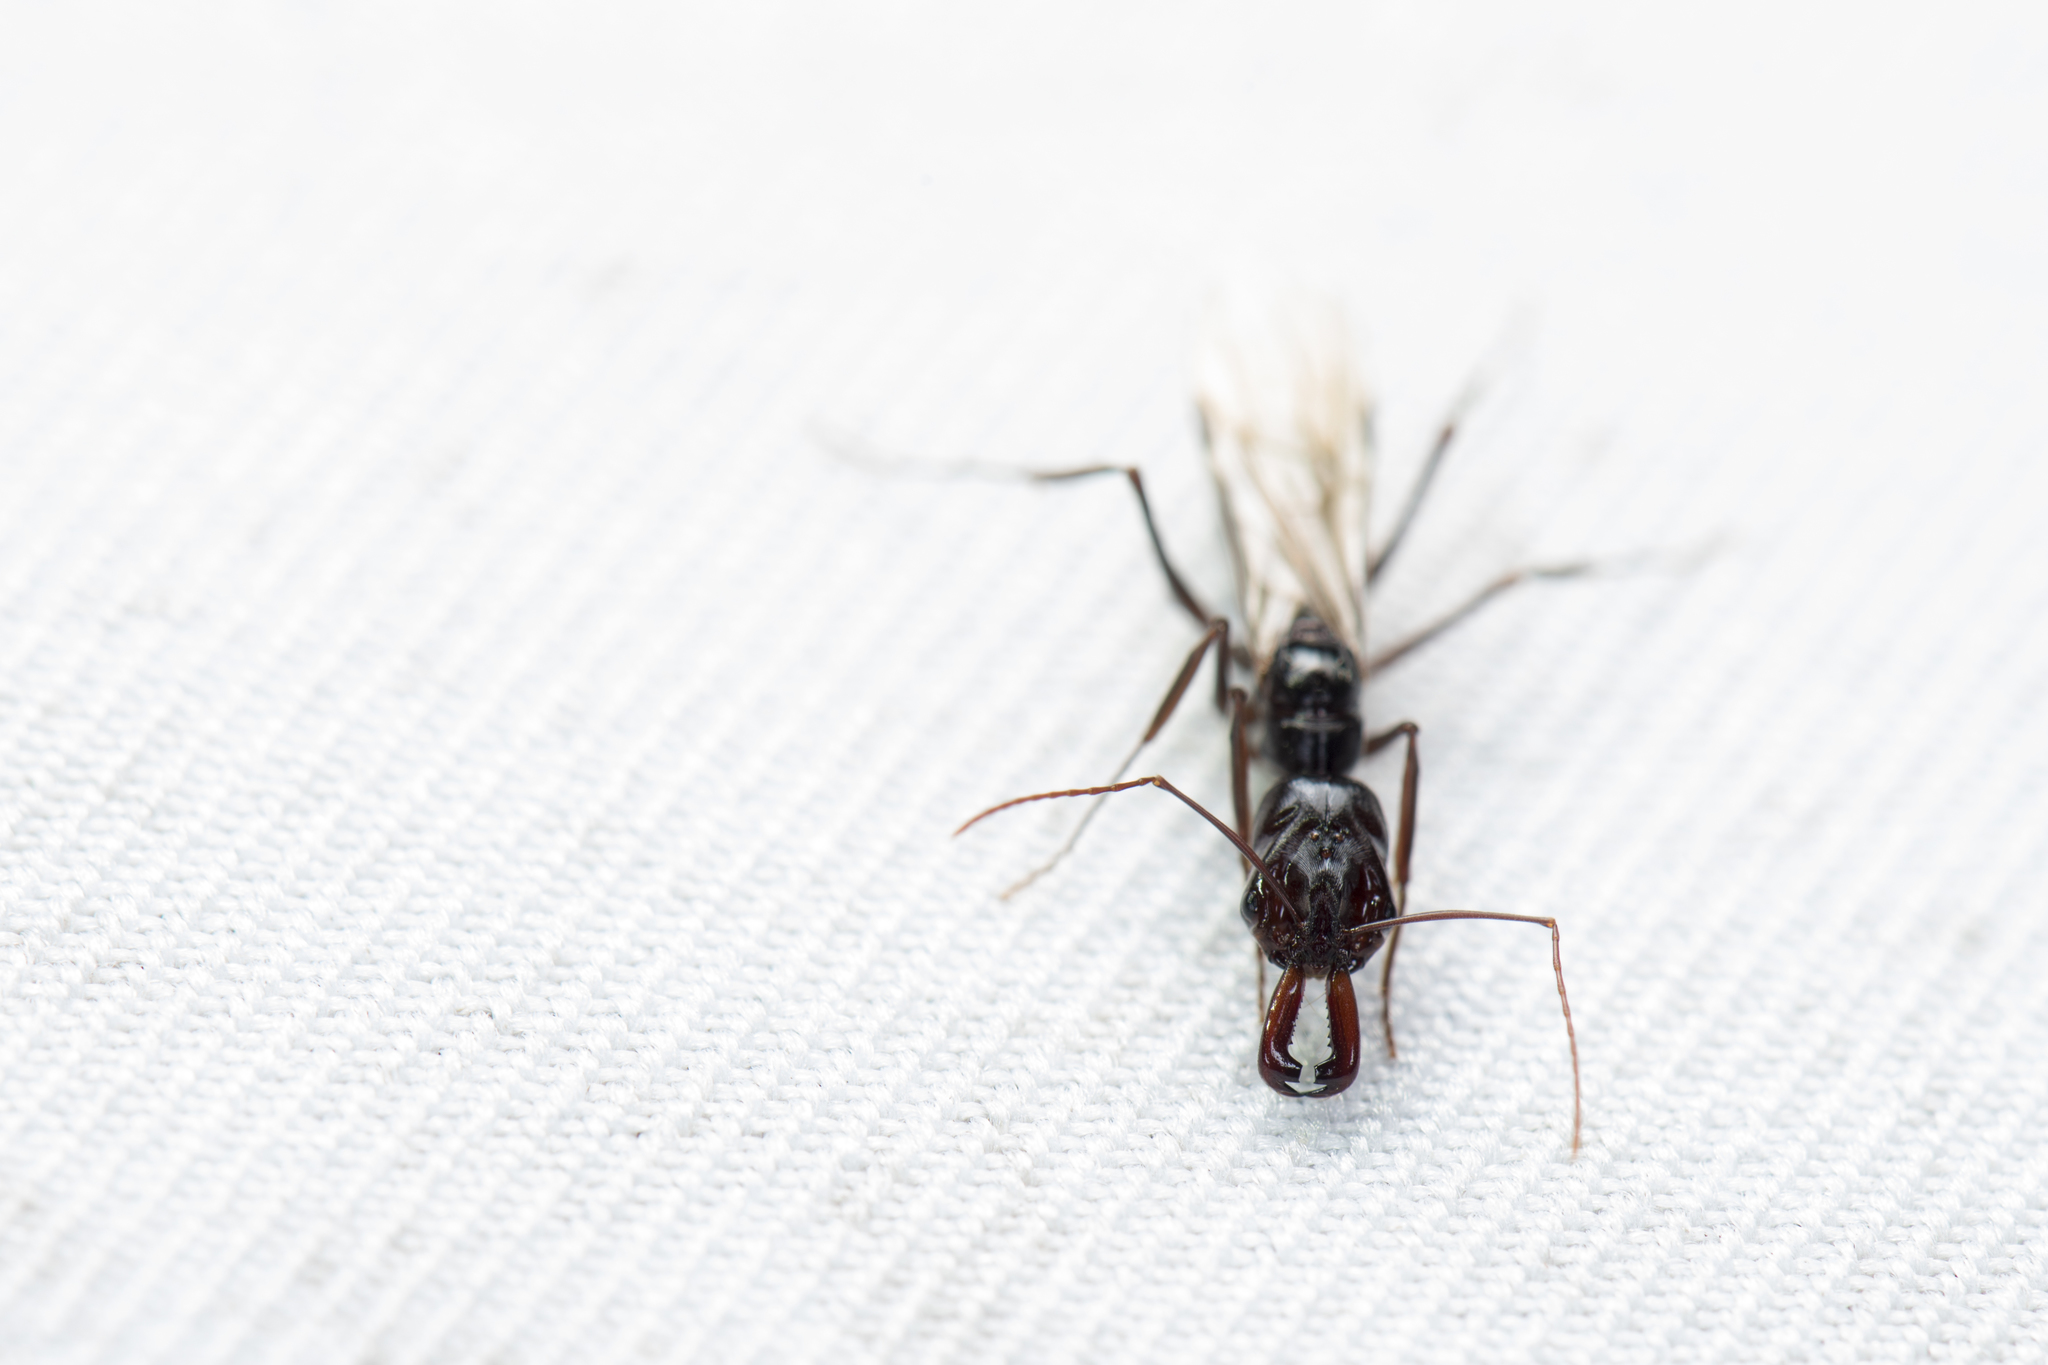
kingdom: Animalia
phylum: Arthropoda
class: Insecta
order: Hymenoptera
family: Formicidae
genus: Odontomachus
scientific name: Odontomachus monticola
